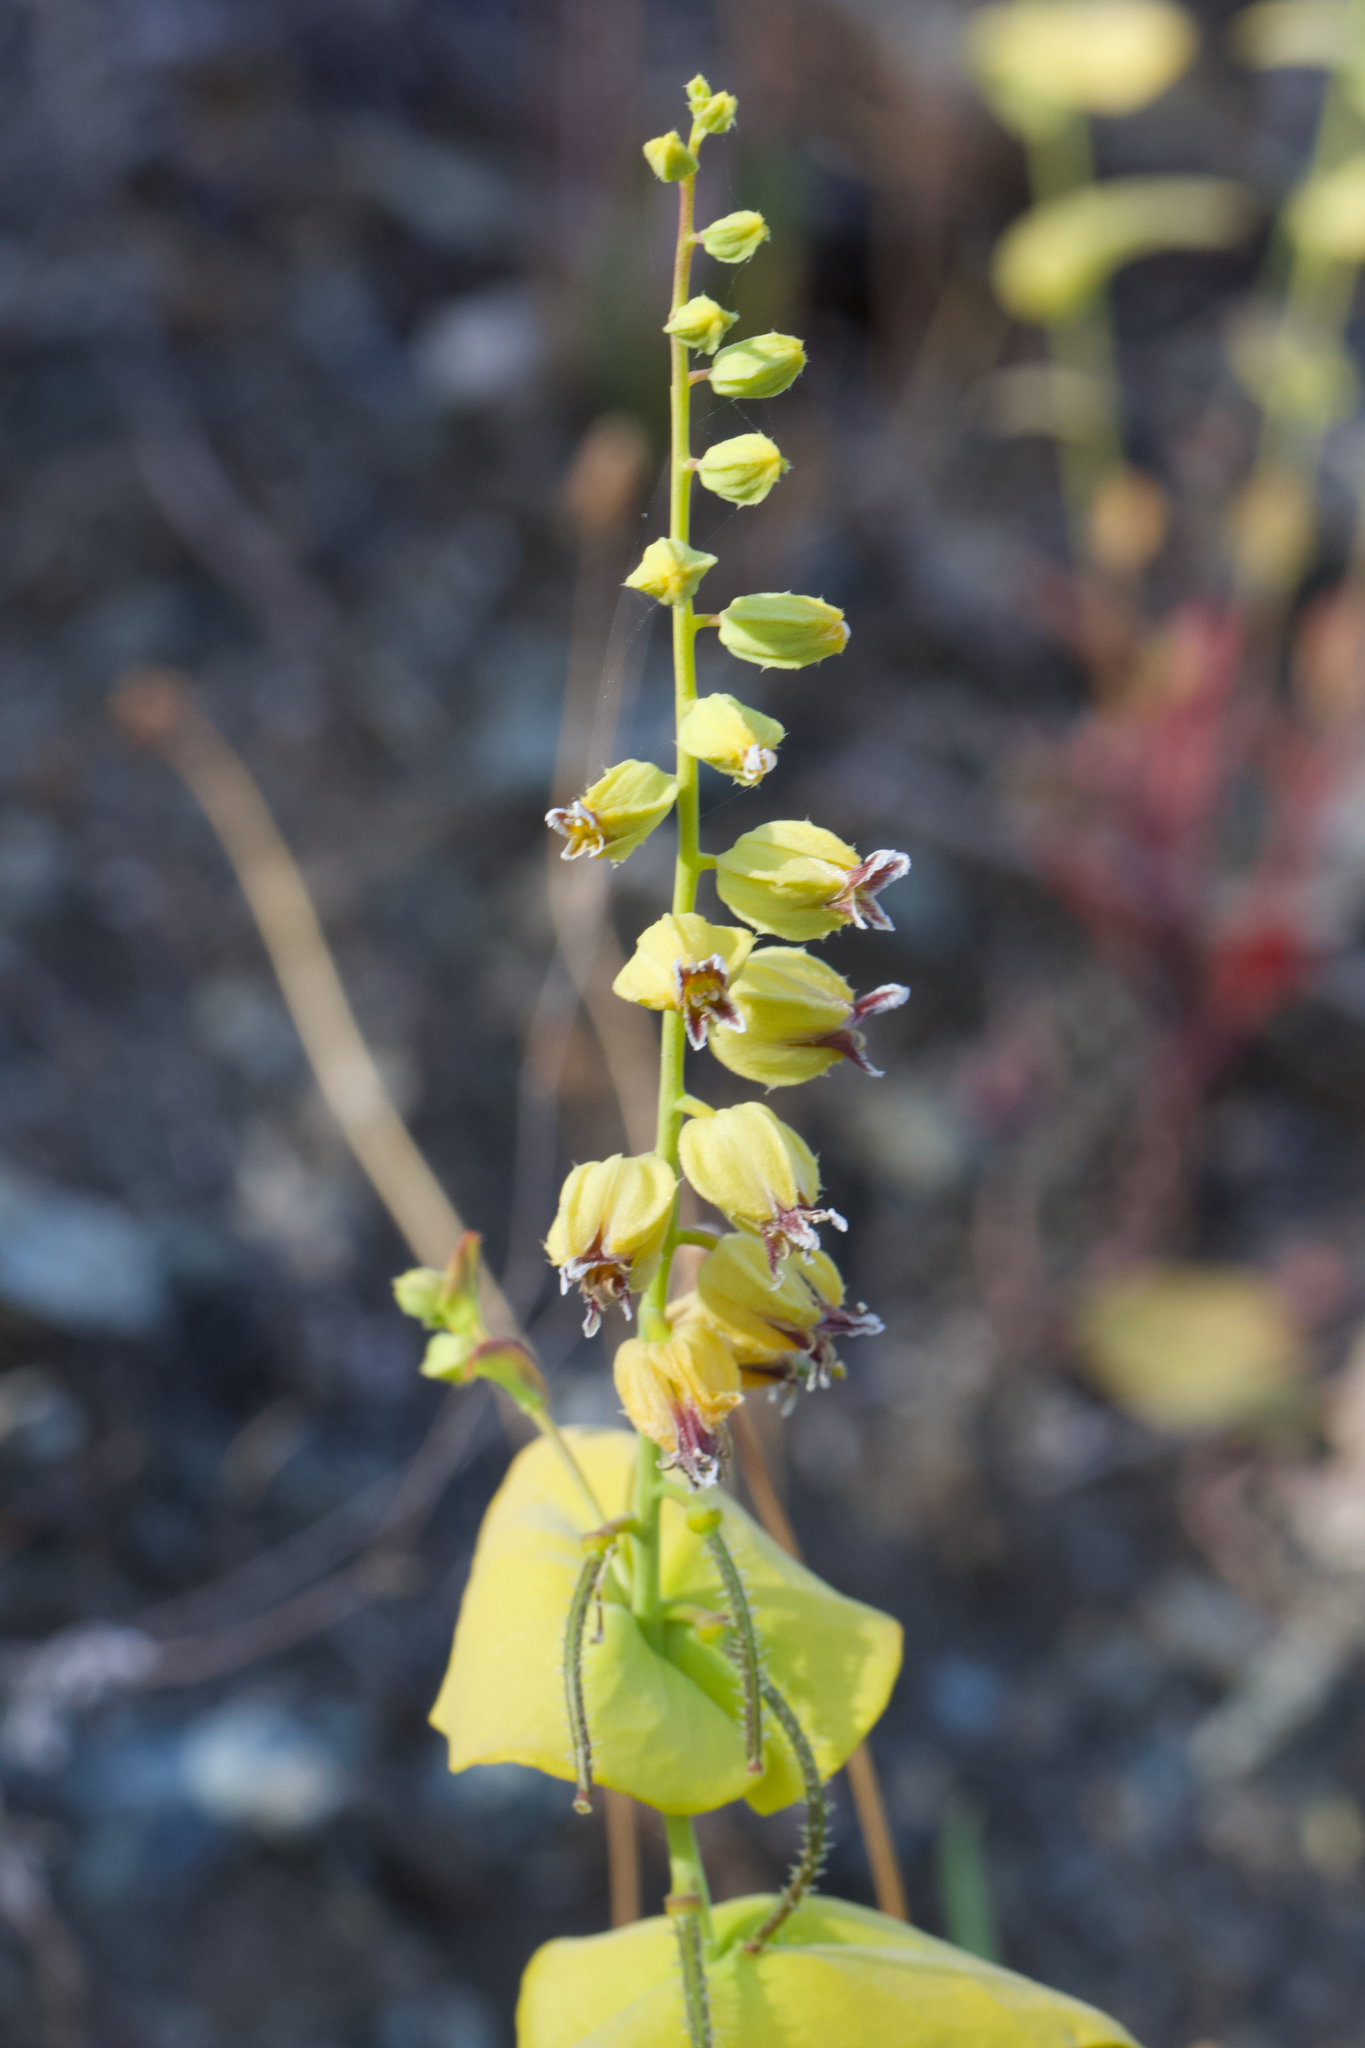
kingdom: Plantae
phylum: Tracheophyta
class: Magnoliopsida
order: Brassicales
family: Brassicaceae
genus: Streptanthus
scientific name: Streptanthus anomalus
